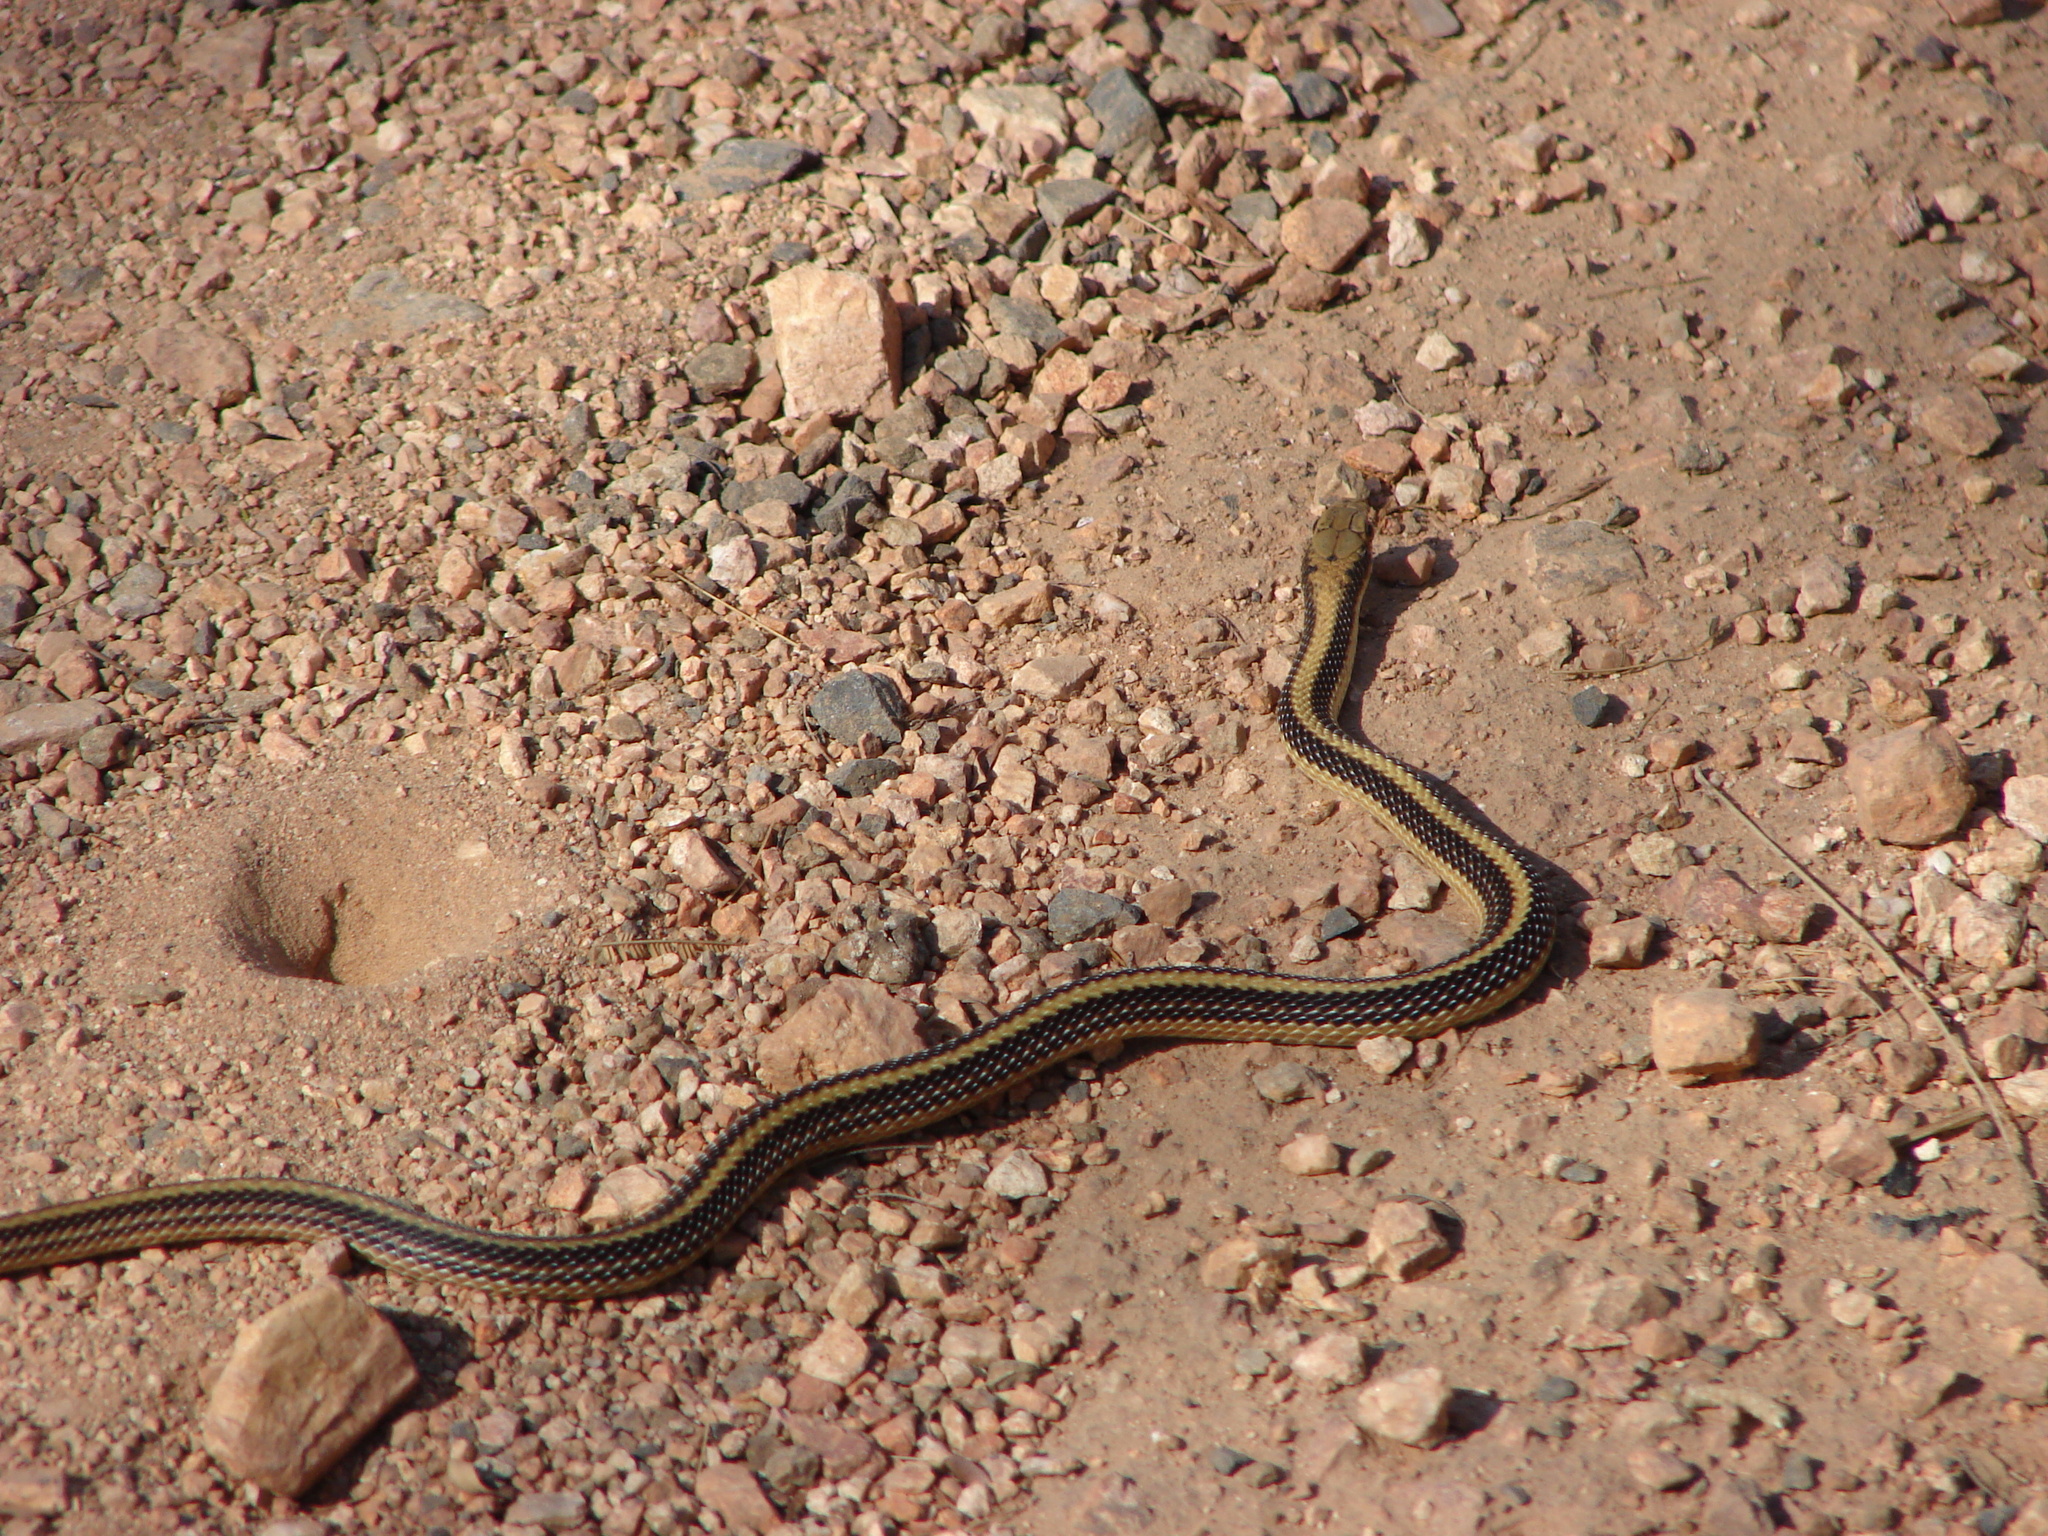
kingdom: Animalia
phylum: Chordata
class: Squamata
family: Colubridae
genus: Salvadora
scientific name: Salvadora deserticola
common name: Big bend patchnose snake
